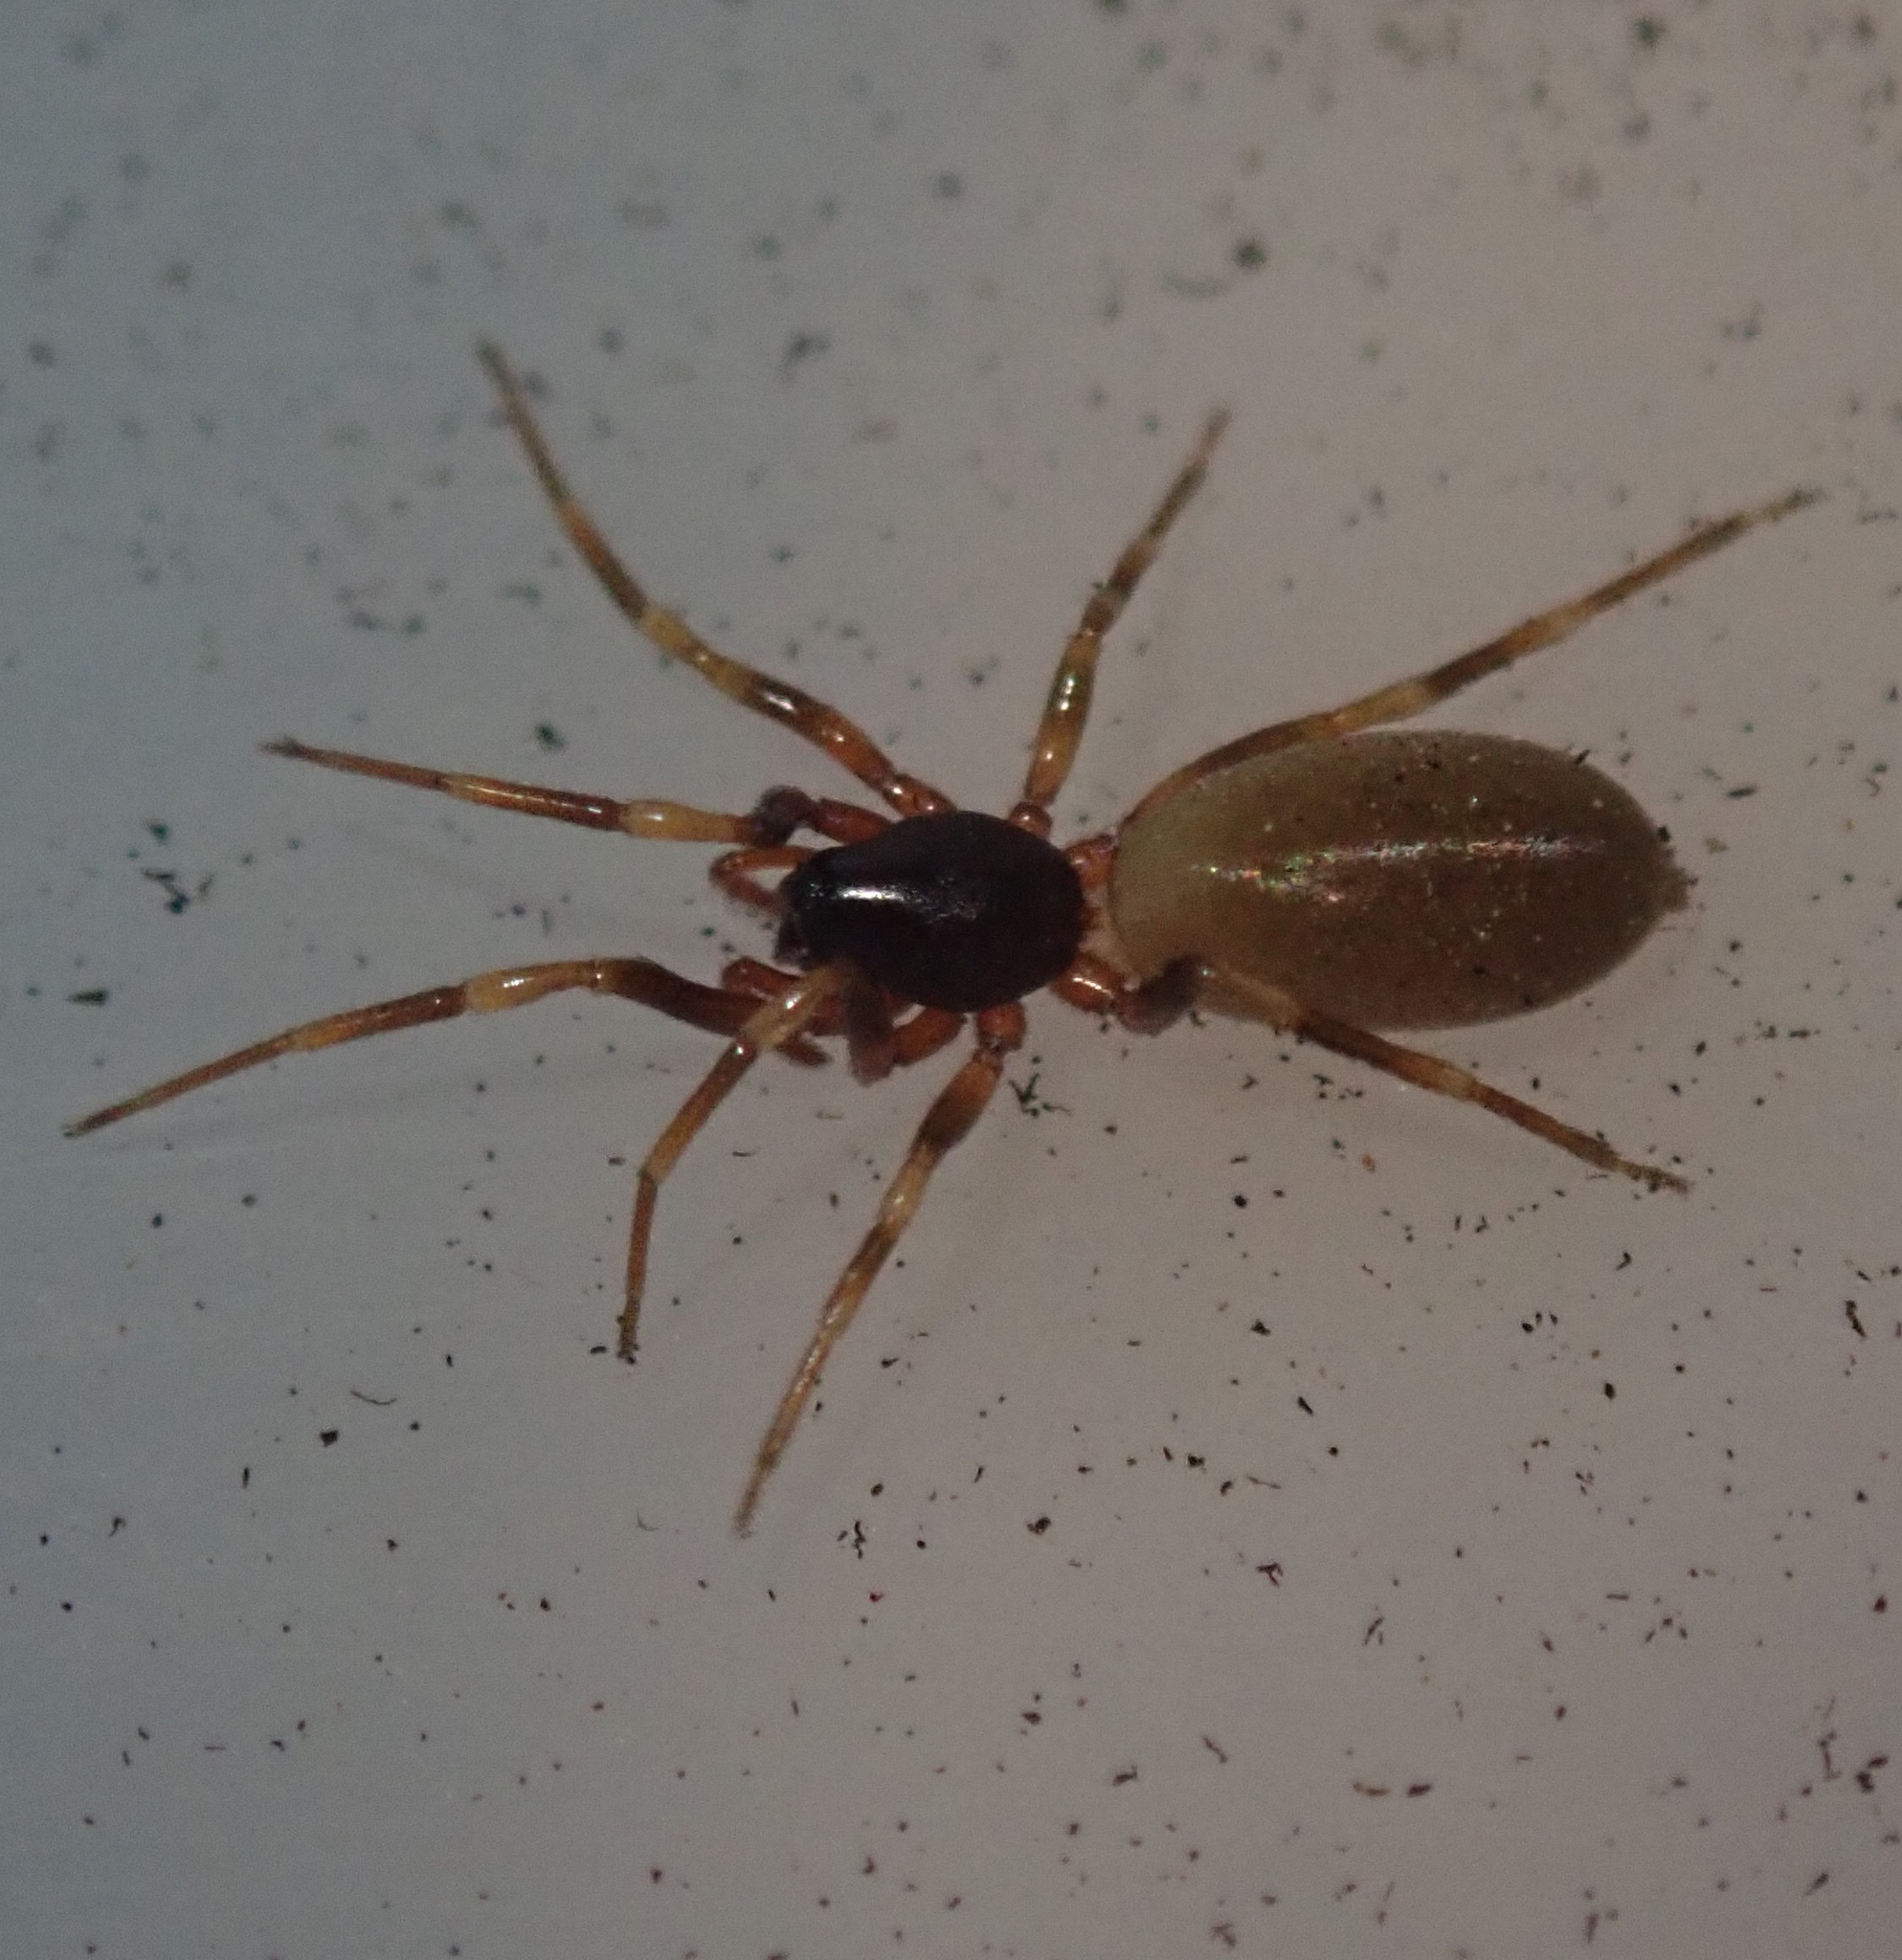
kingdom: Animalia
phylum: Arthropoda
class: Arachnida
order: Araneae
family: Dysderidae
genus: Harpactea
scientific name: Harpactea hombergi
